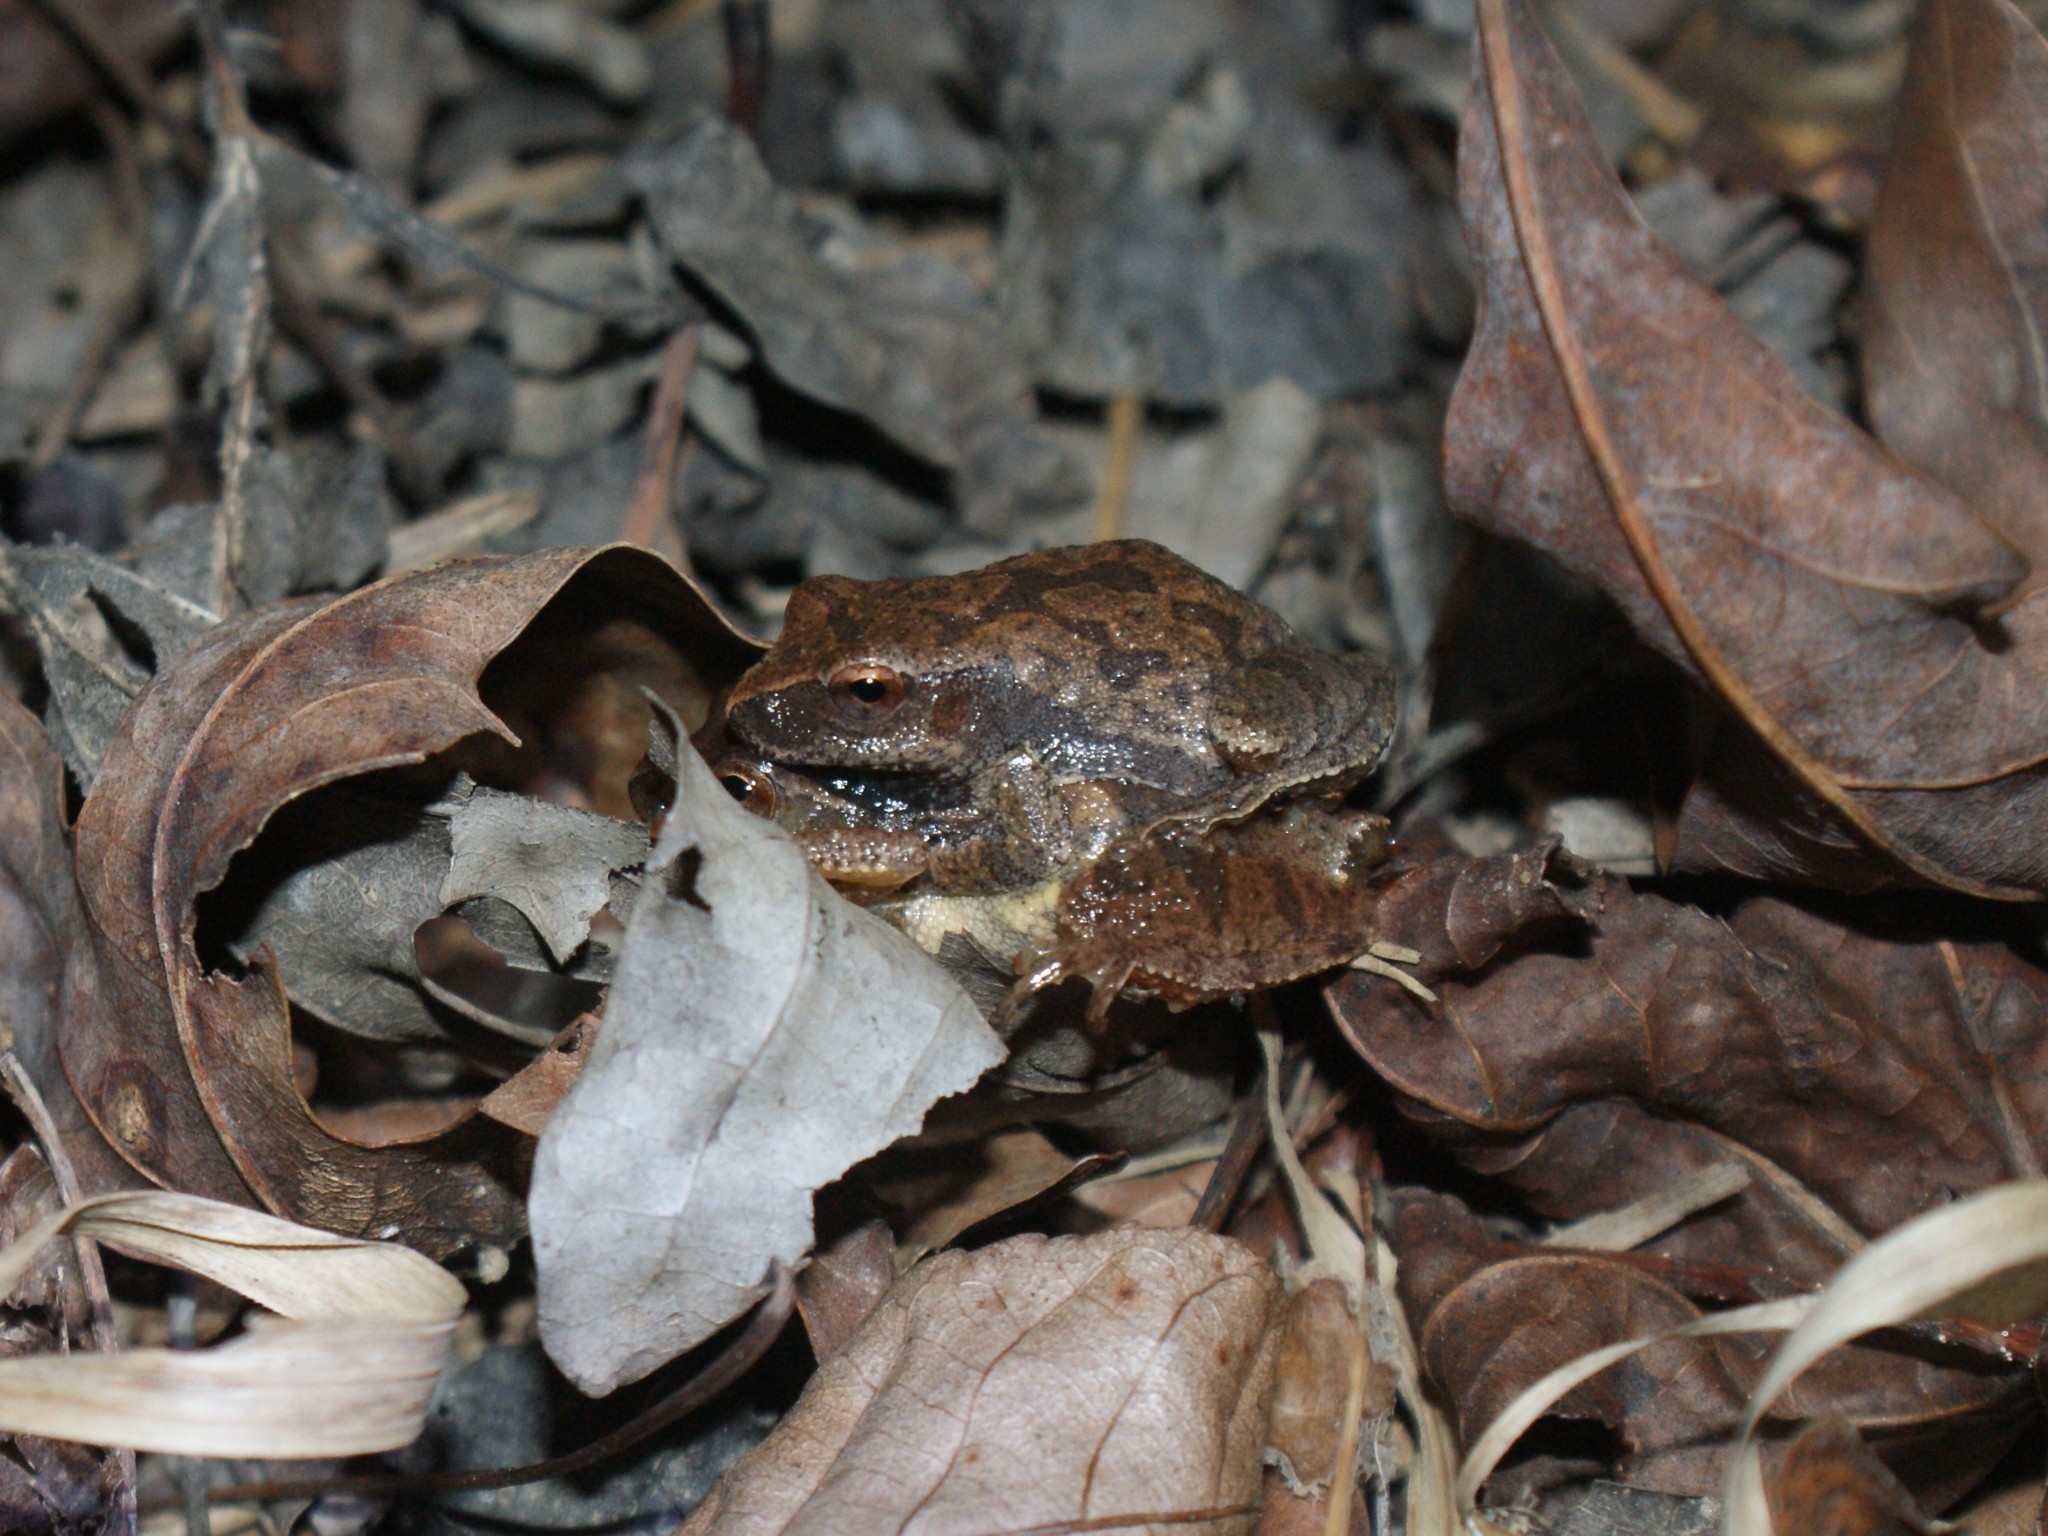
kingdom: Animalia
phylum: Chordata
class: Amphibia
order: Anura
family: Hylidae
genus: Pseudacris
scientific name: Pseudacris crucifer
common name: Spring peeper
